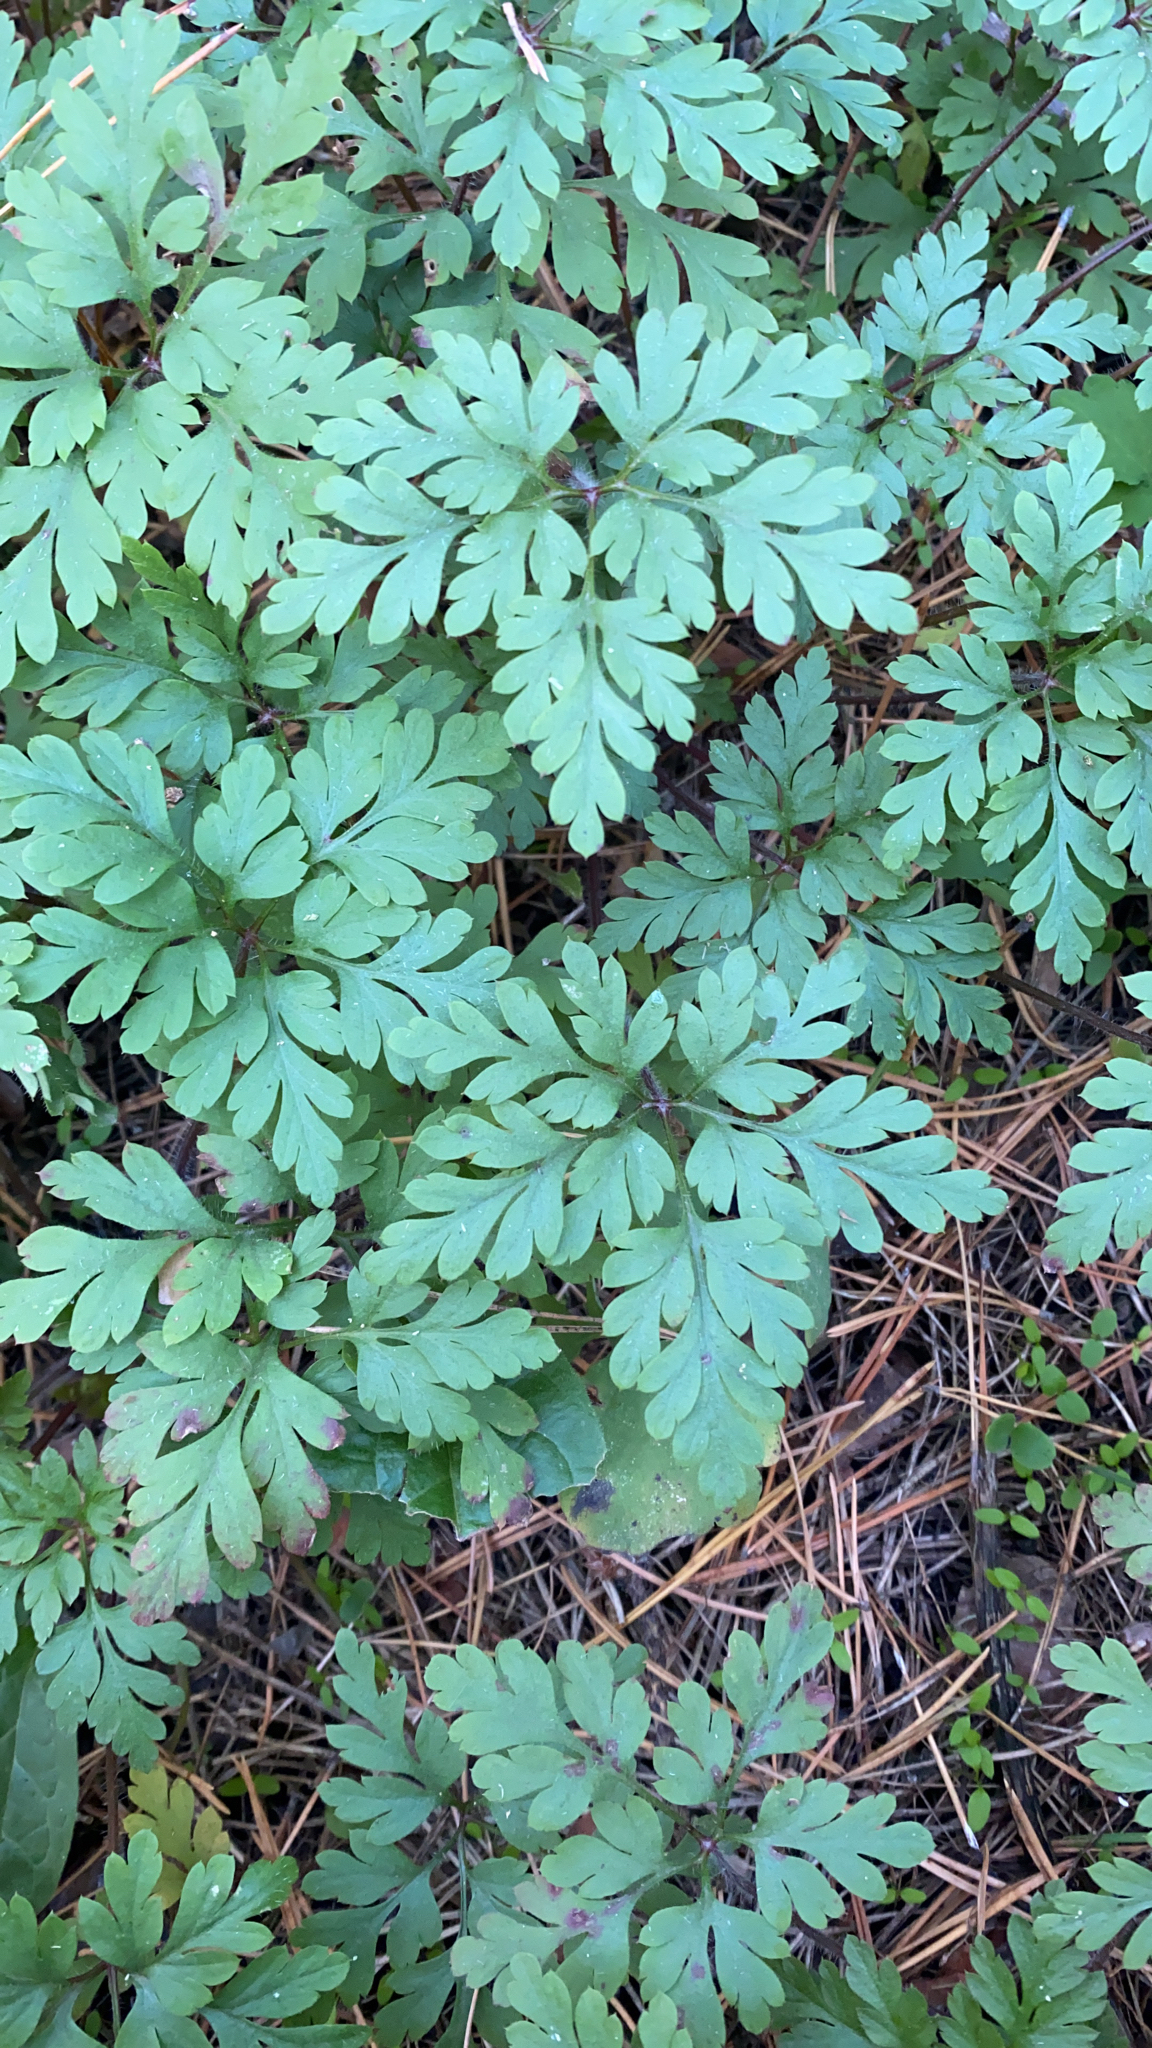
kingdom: Plantae
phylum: Tracheophyta
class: Magnoliopsida
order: Geraniales
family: Geraniaceae
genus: Geranium
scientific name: Geranium robertianum
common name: Herb-robert
